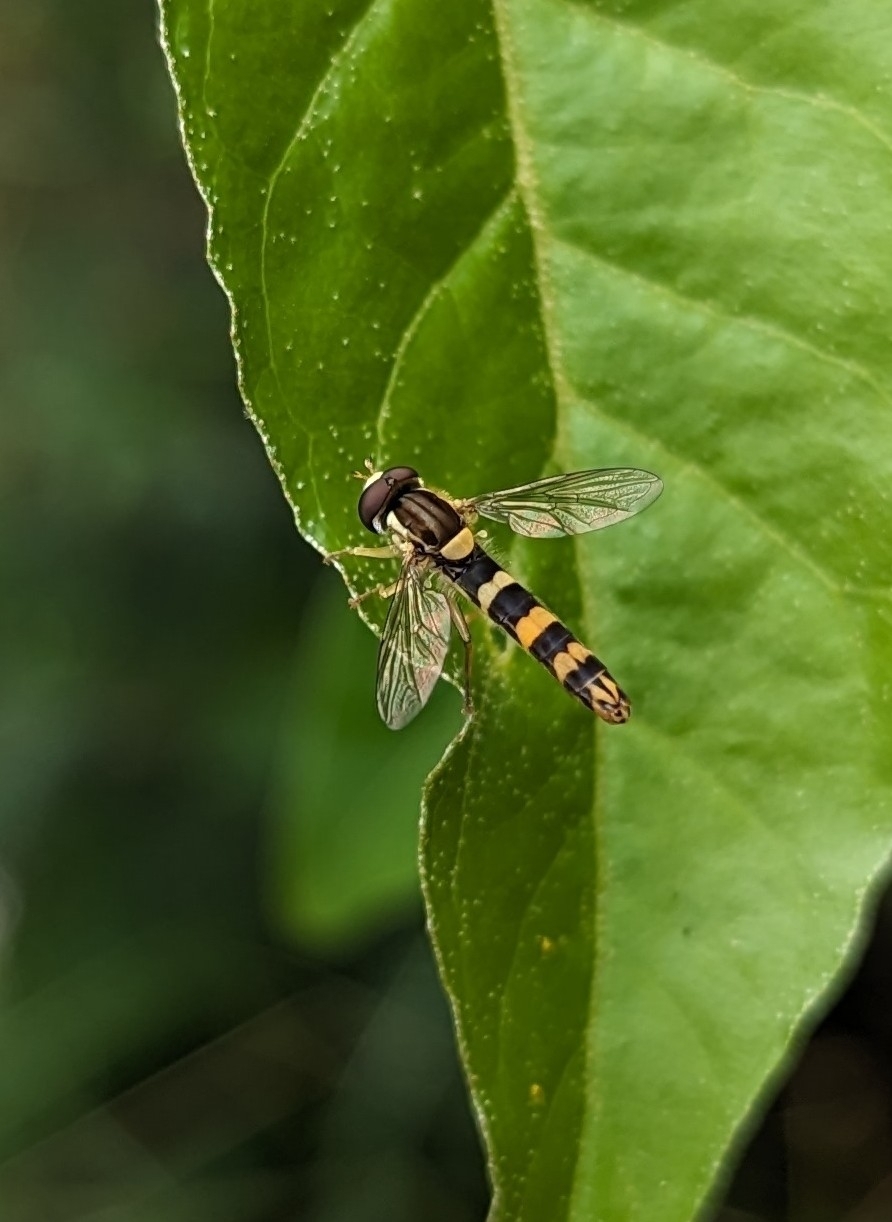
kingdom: Animalia
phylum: Arthropoda
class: Insecta
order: Diptera
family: Syrphidae
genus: Sphaerophoria
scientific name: Sphaerophoria scripta
